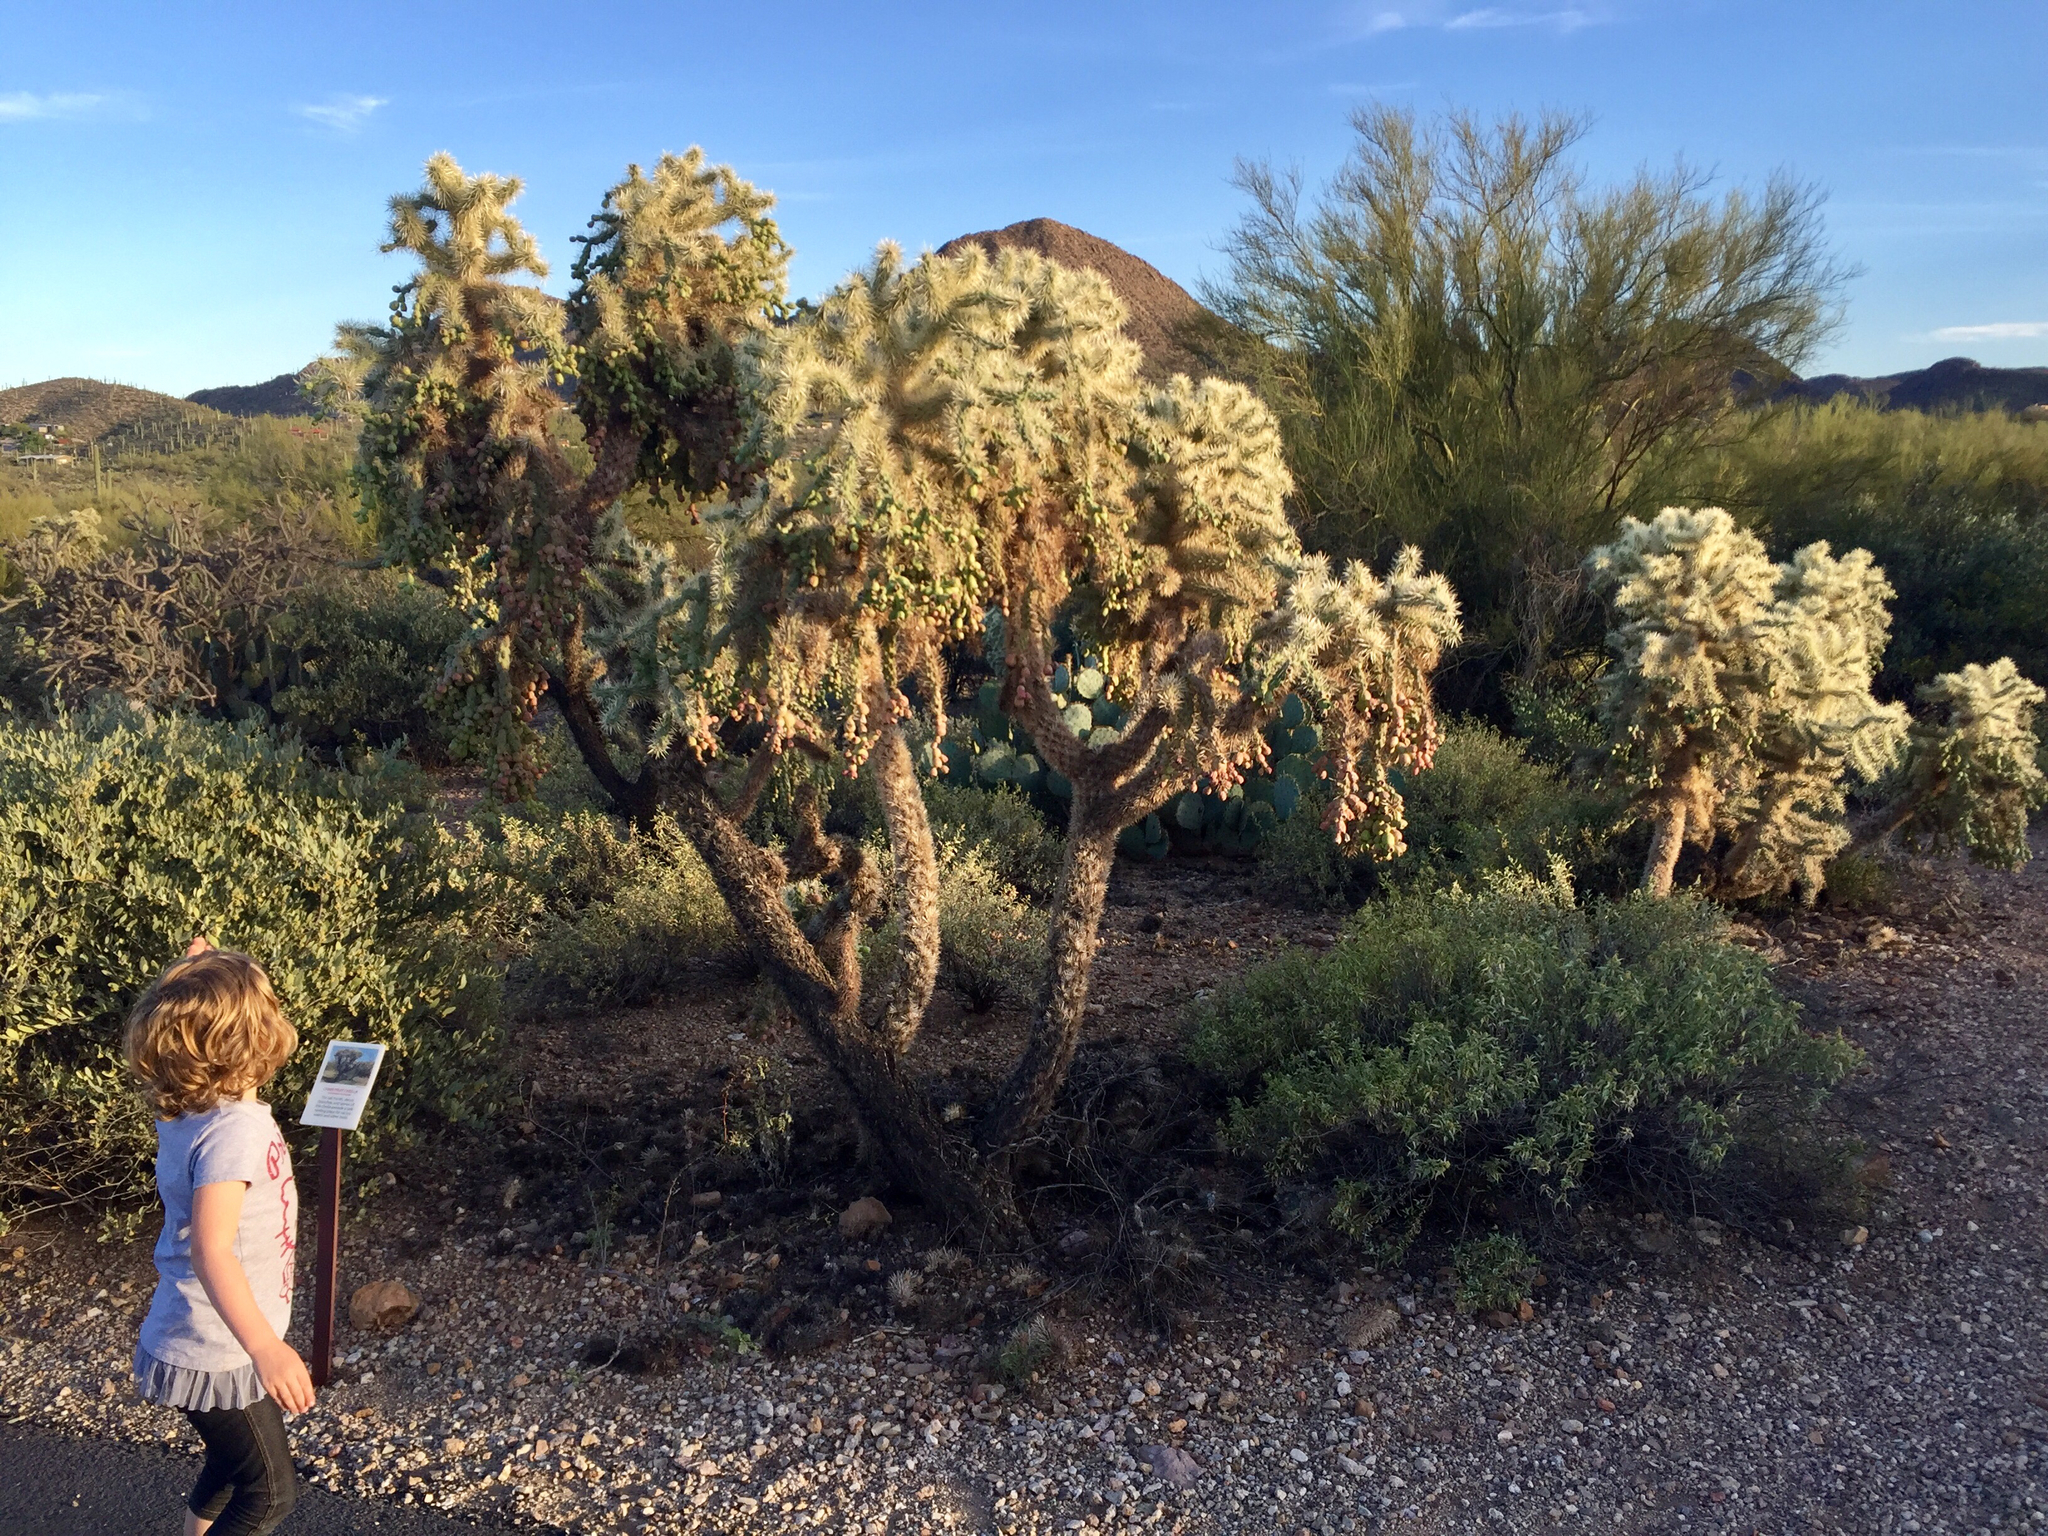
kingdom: Plantae
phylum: Tracheophyta
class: Magnoliopsida
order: Caryophyllales
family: Cactaceae
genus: Cylindropuntia
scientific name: Cylindropuntia fulgida
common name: Jumping cholla
